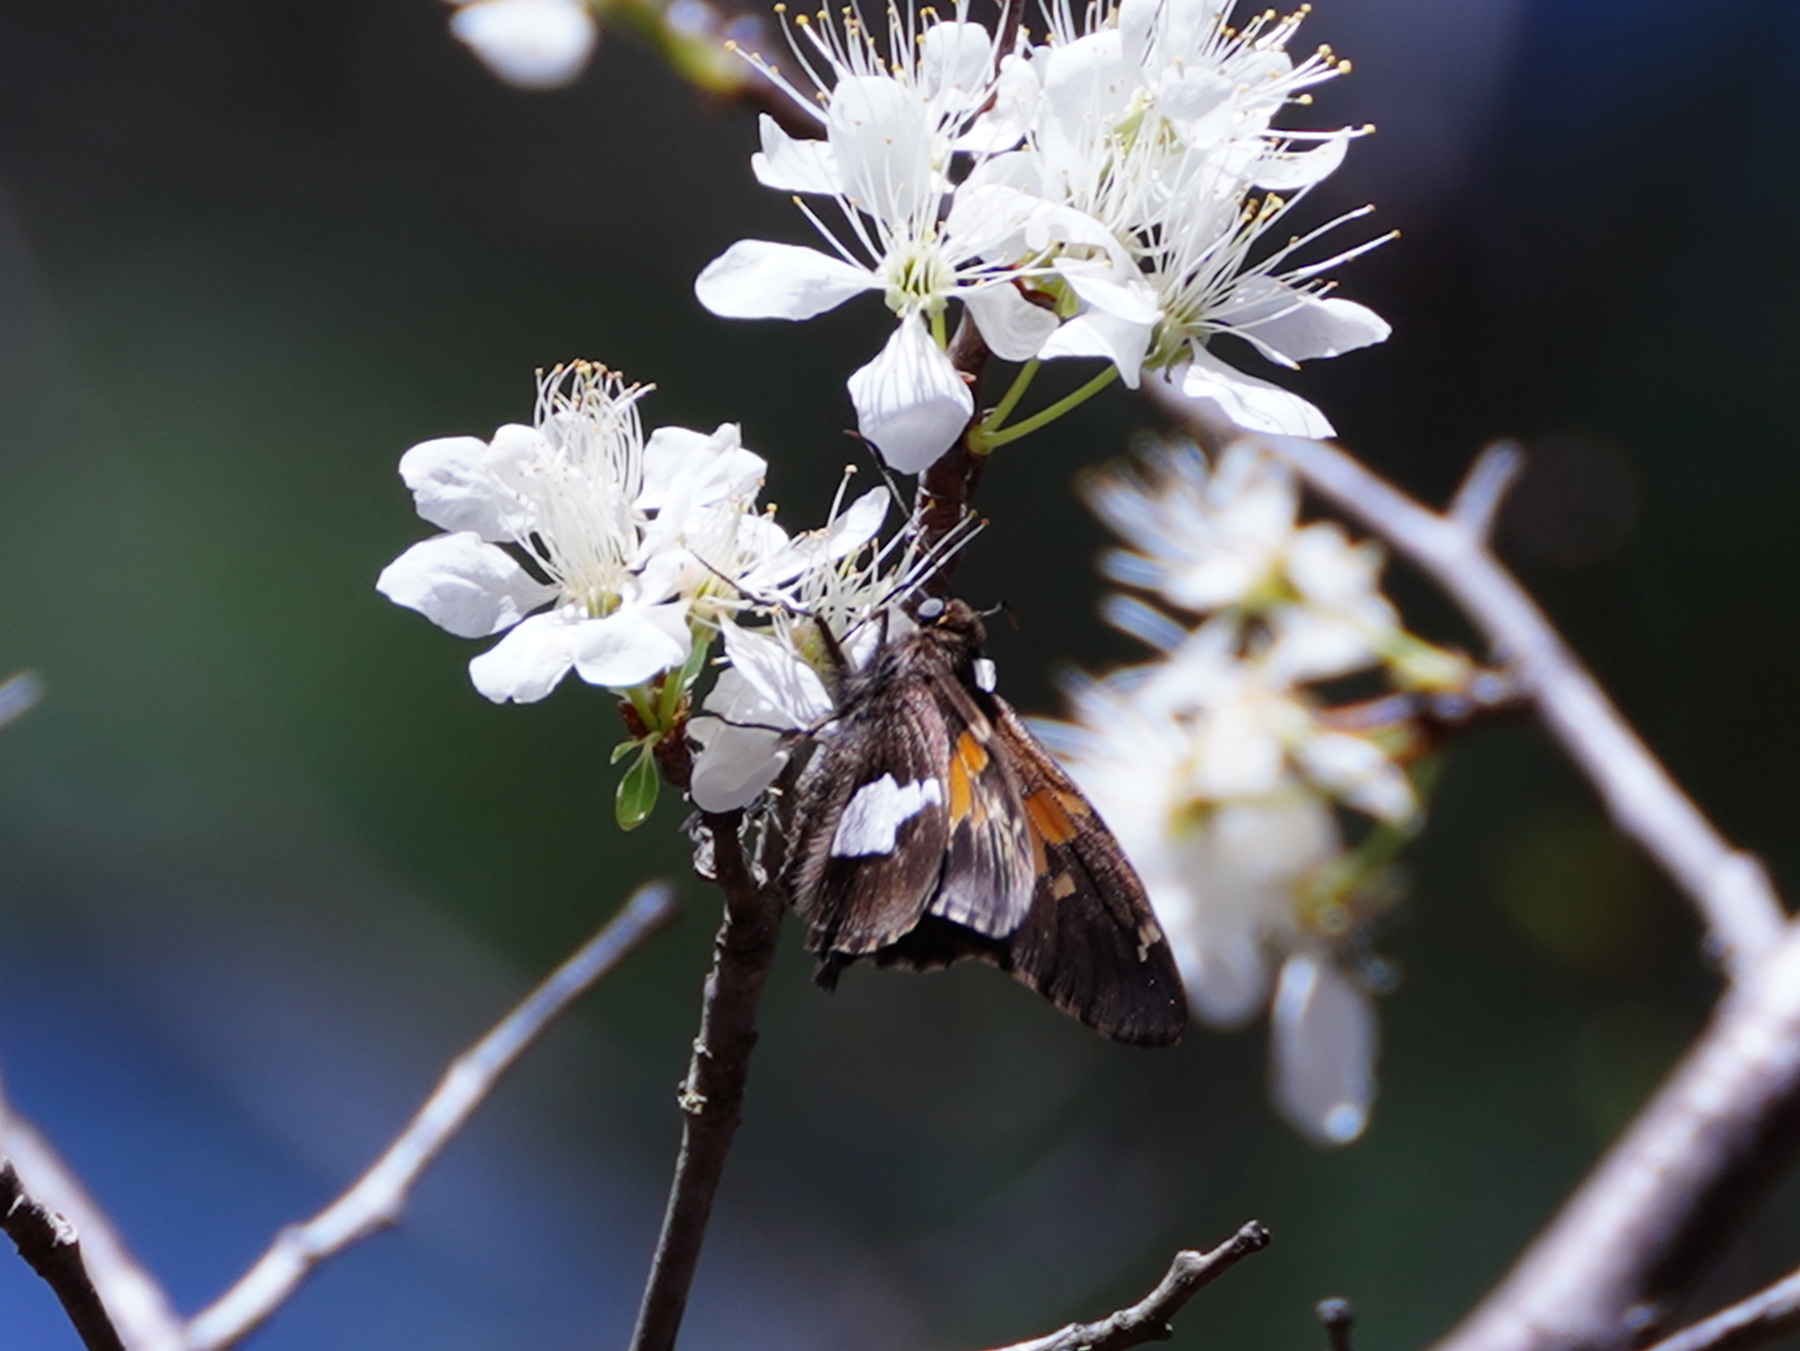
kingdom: Animalia
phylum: Arthropoda
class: Insecta
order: Lepidoptera
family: Hesperiidae
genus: Epargyreus
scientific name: Epargyreus clarus
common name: Silver-spotted skipper
